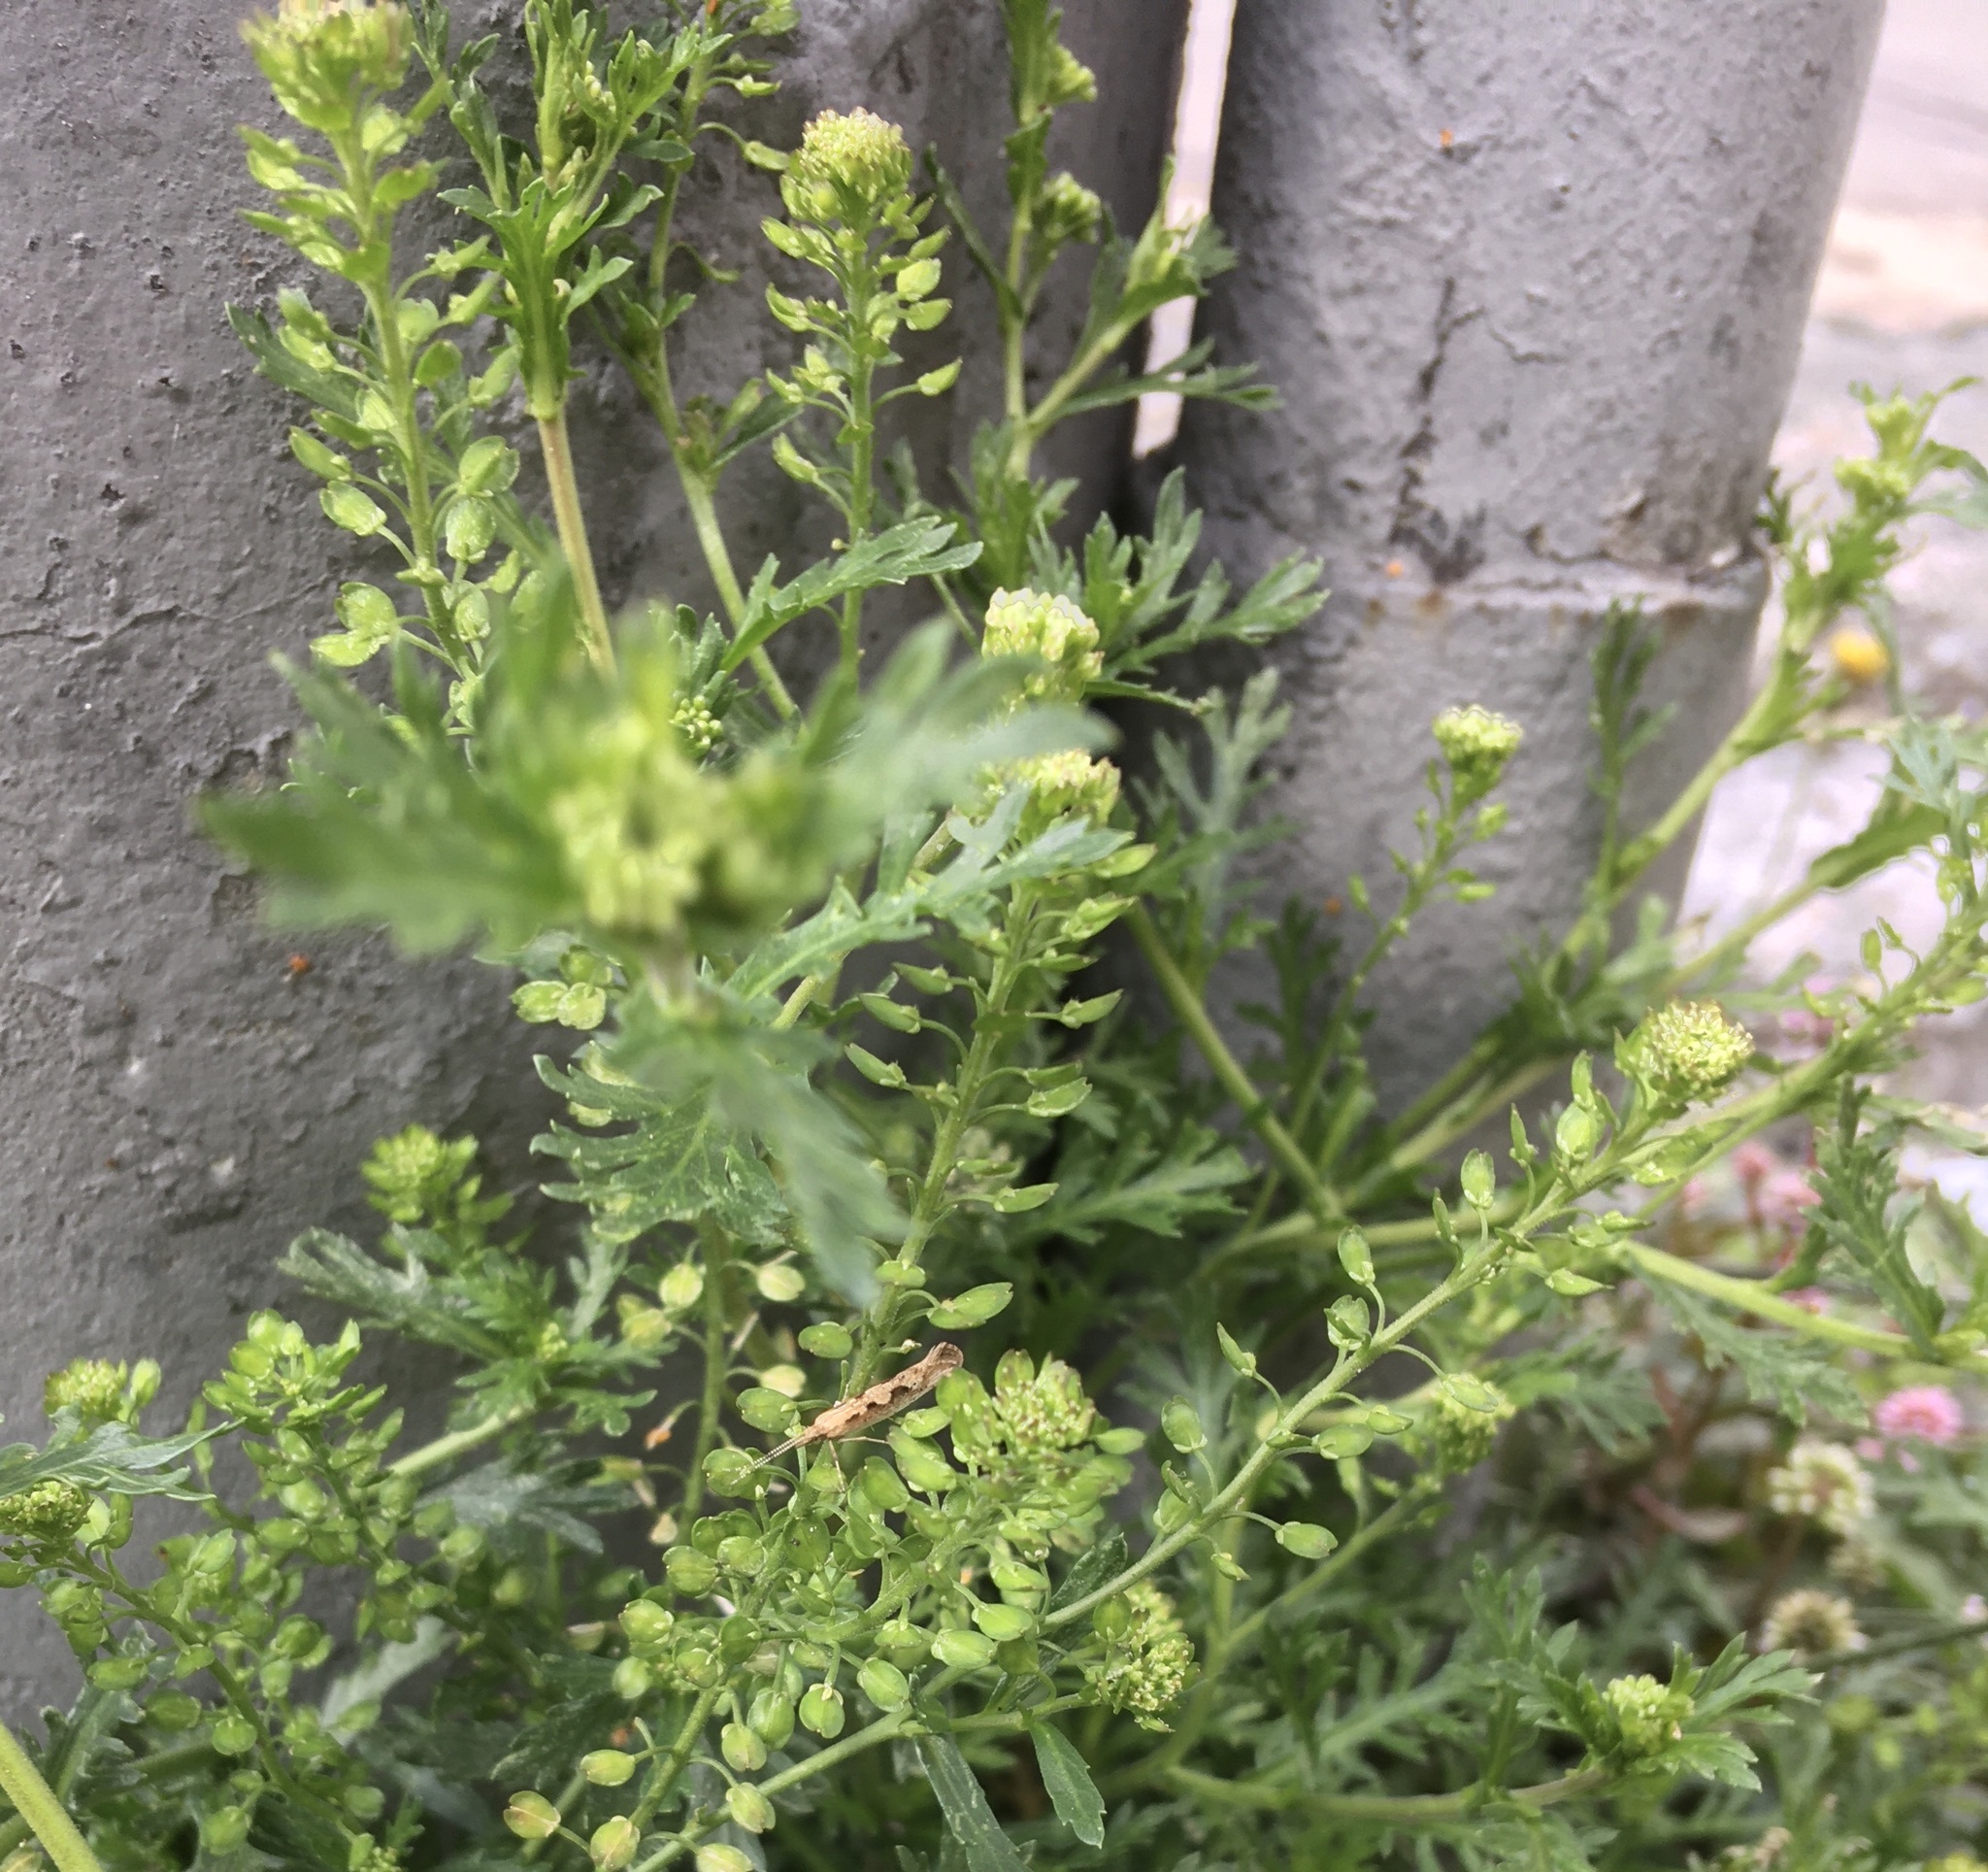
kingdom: Plantae
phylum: Tracheophyta
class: Magnoliopsida
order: Brassicales
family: Brassicaceae
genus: Lepidium
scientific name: Lepidium bipinnatifidum
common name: Wayside pepperwort
